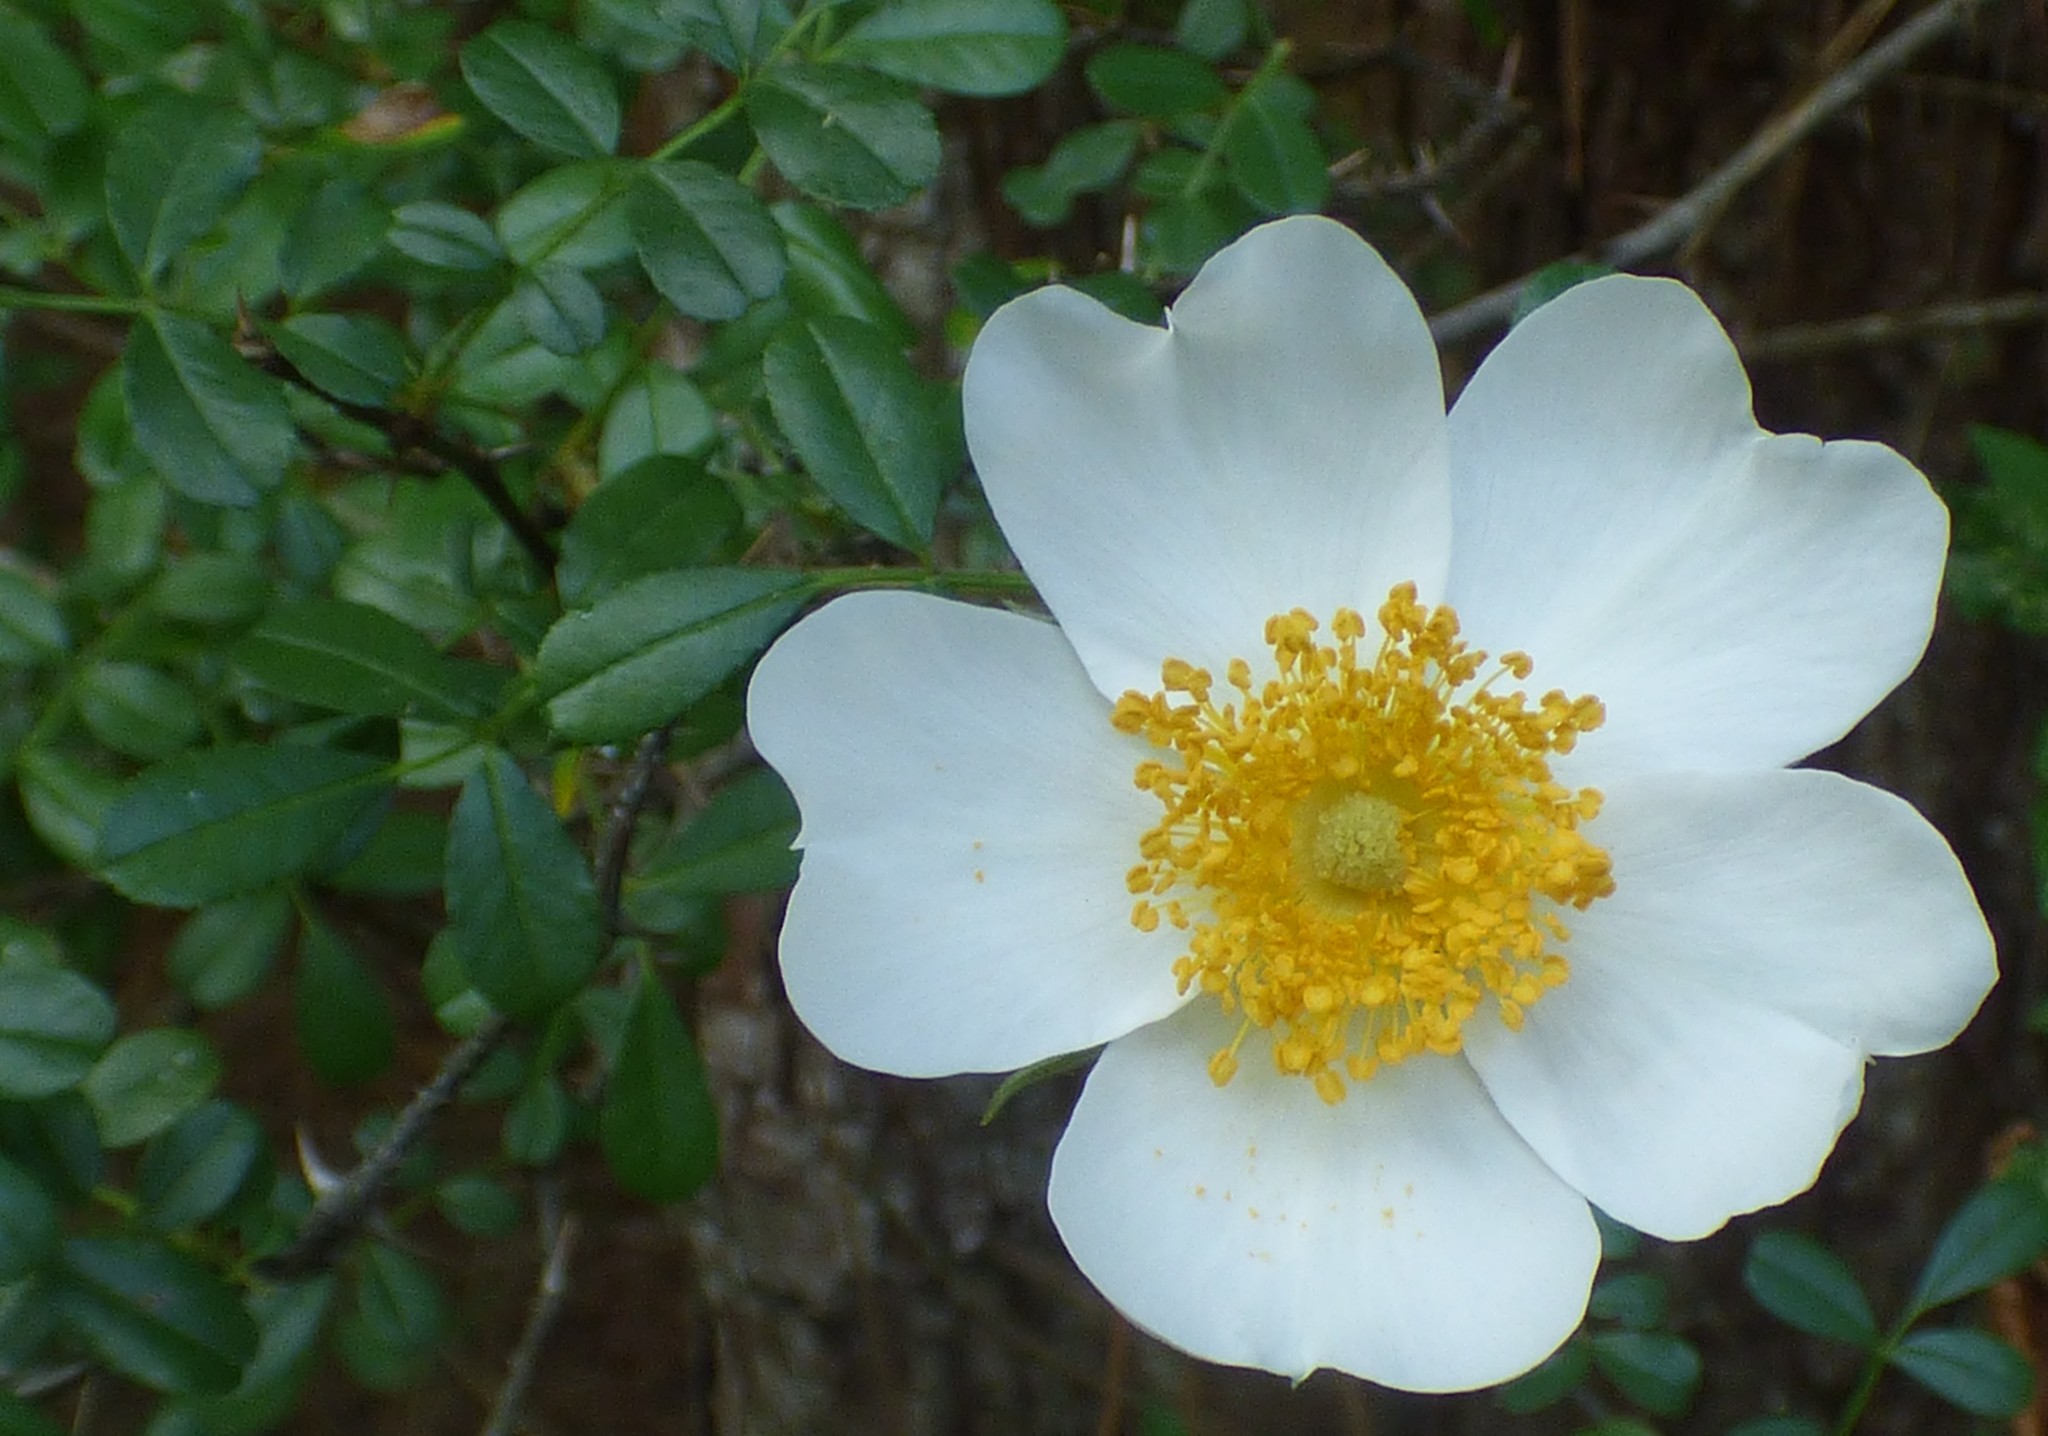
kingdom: Plantae
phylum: Tracheophyta
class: Magnoliopsida
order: Rosales
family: Rosaceae
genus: Rosa
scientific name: Rosa bracteata
